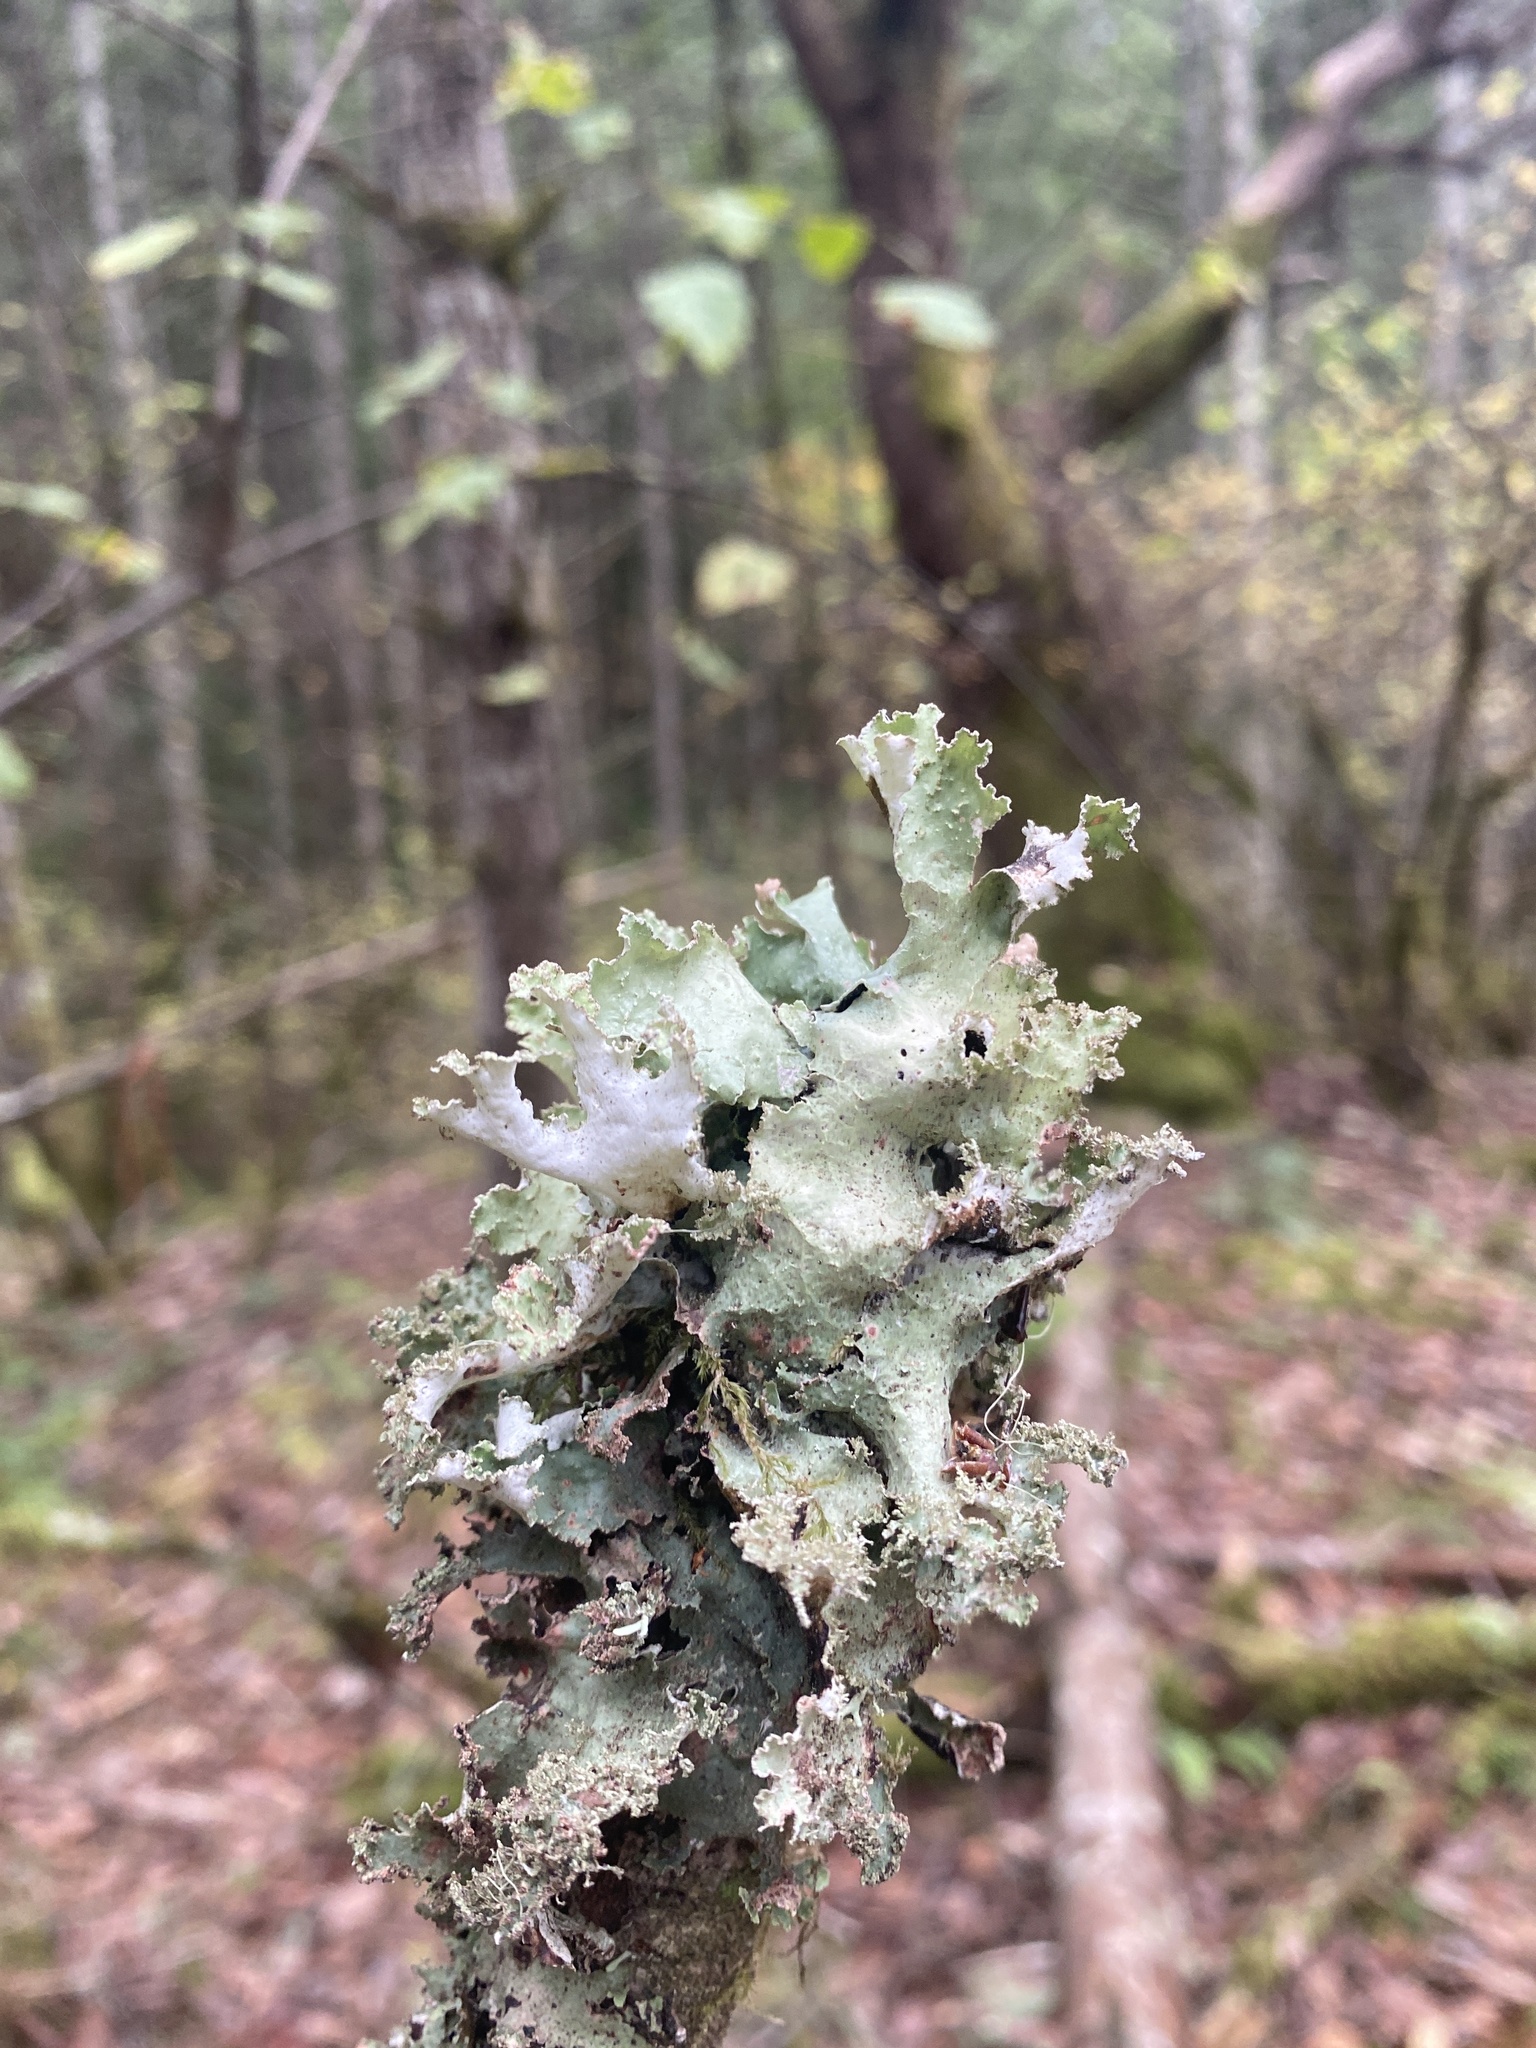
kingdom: Fungi
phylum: Ascomycota
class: Lecanoromycetes
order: Lecanorales
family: Parmeliaceae
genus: Platismatia
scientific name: Platismatia glauca
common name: Varied rag lichen
